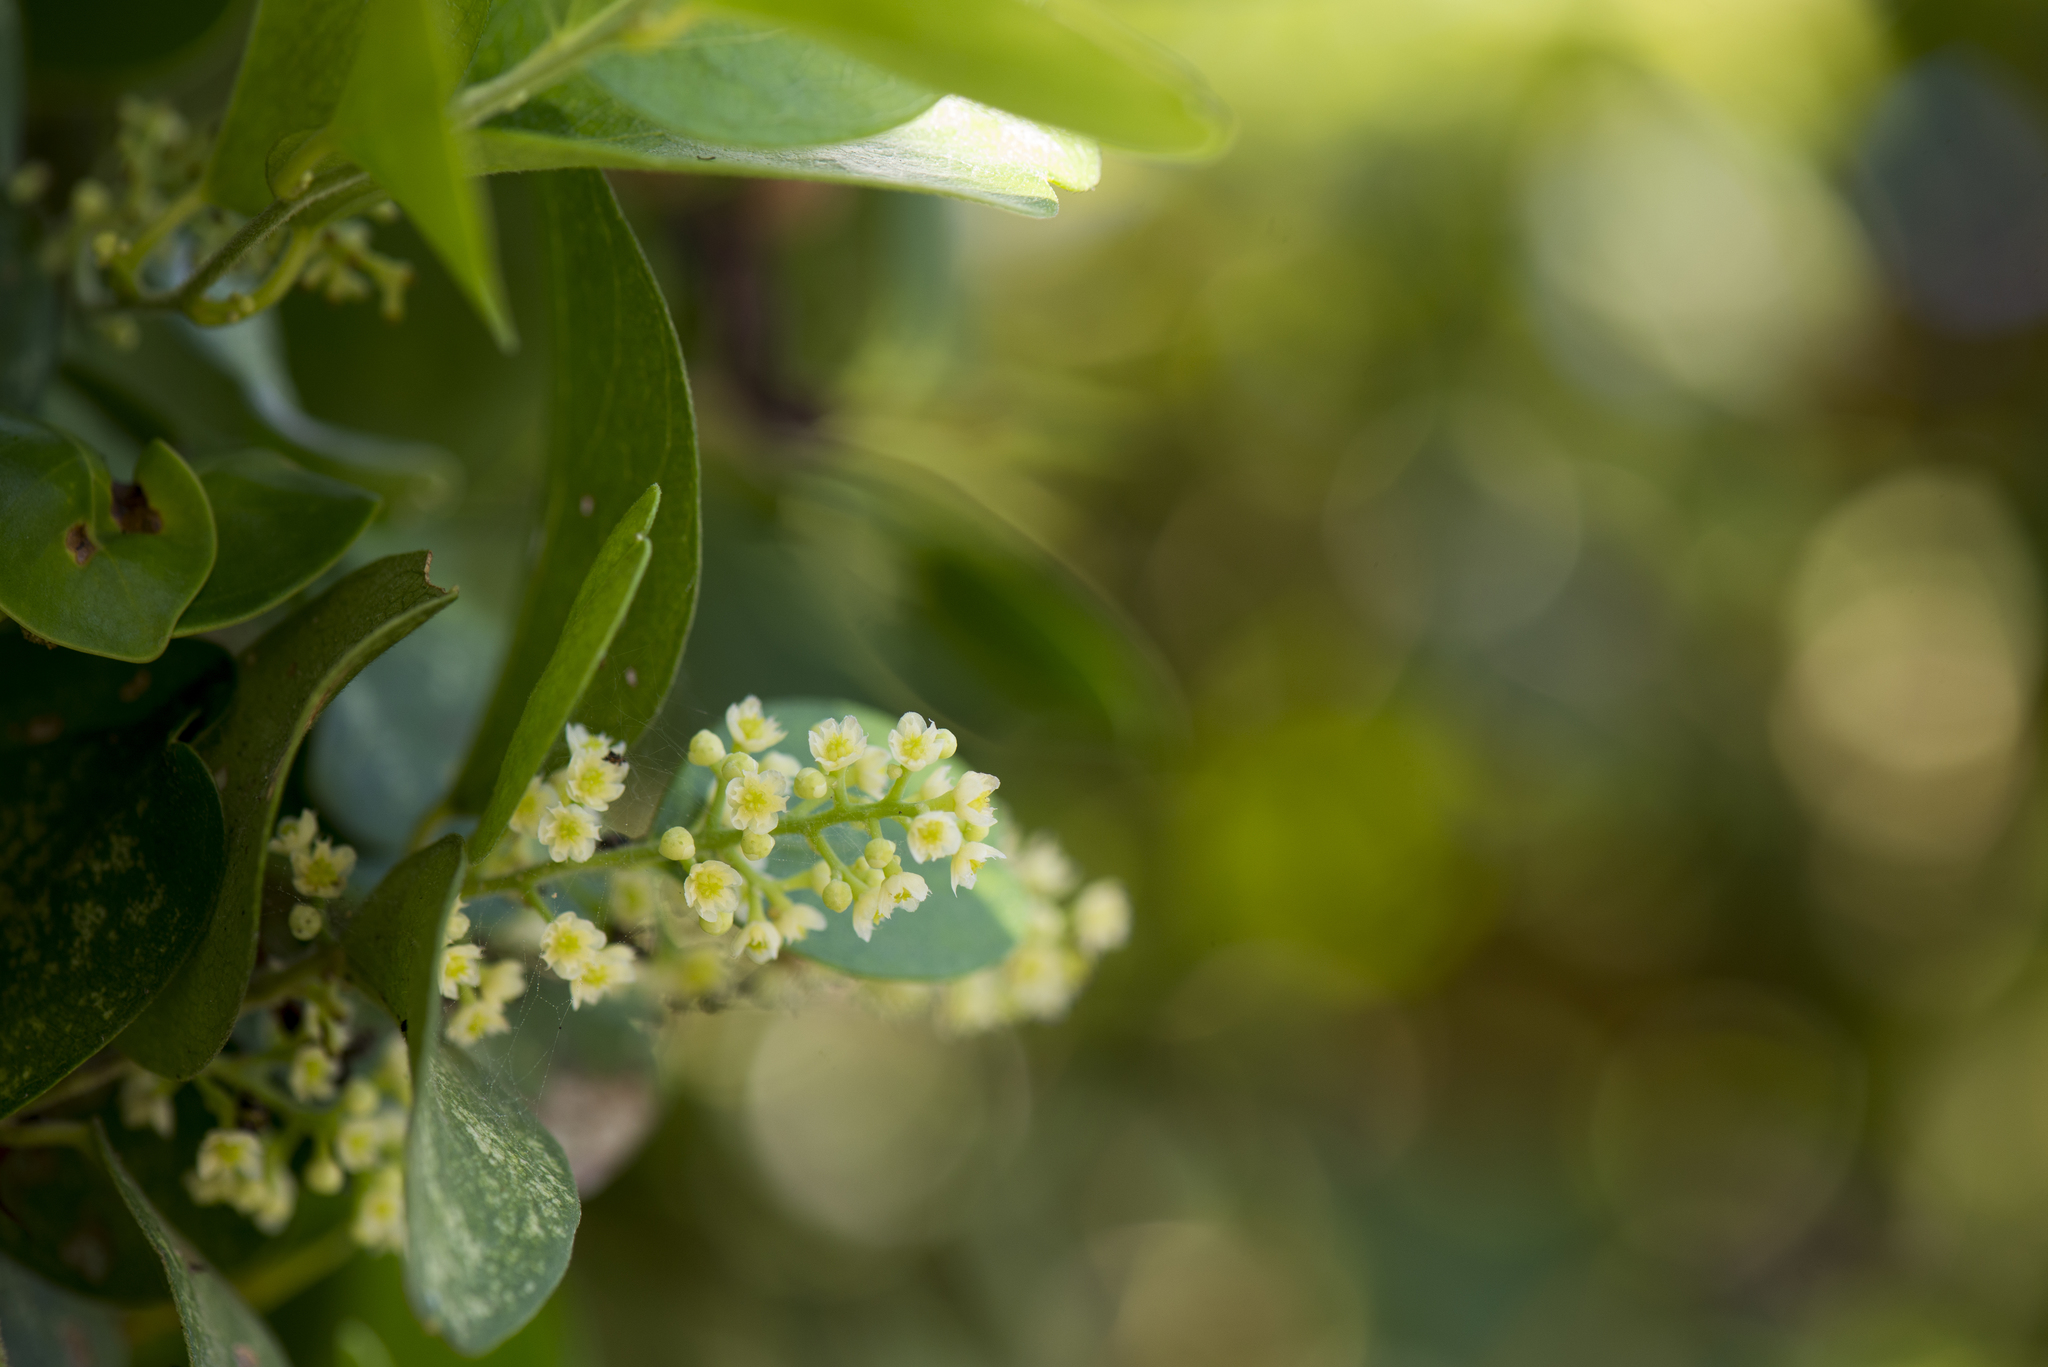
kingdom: Plantae
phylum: Tracheophyta
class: Magnoliopsida
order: Ranunculales
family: Menispermaceae
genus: Cocculus
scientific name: Cocculus orbiculatus
